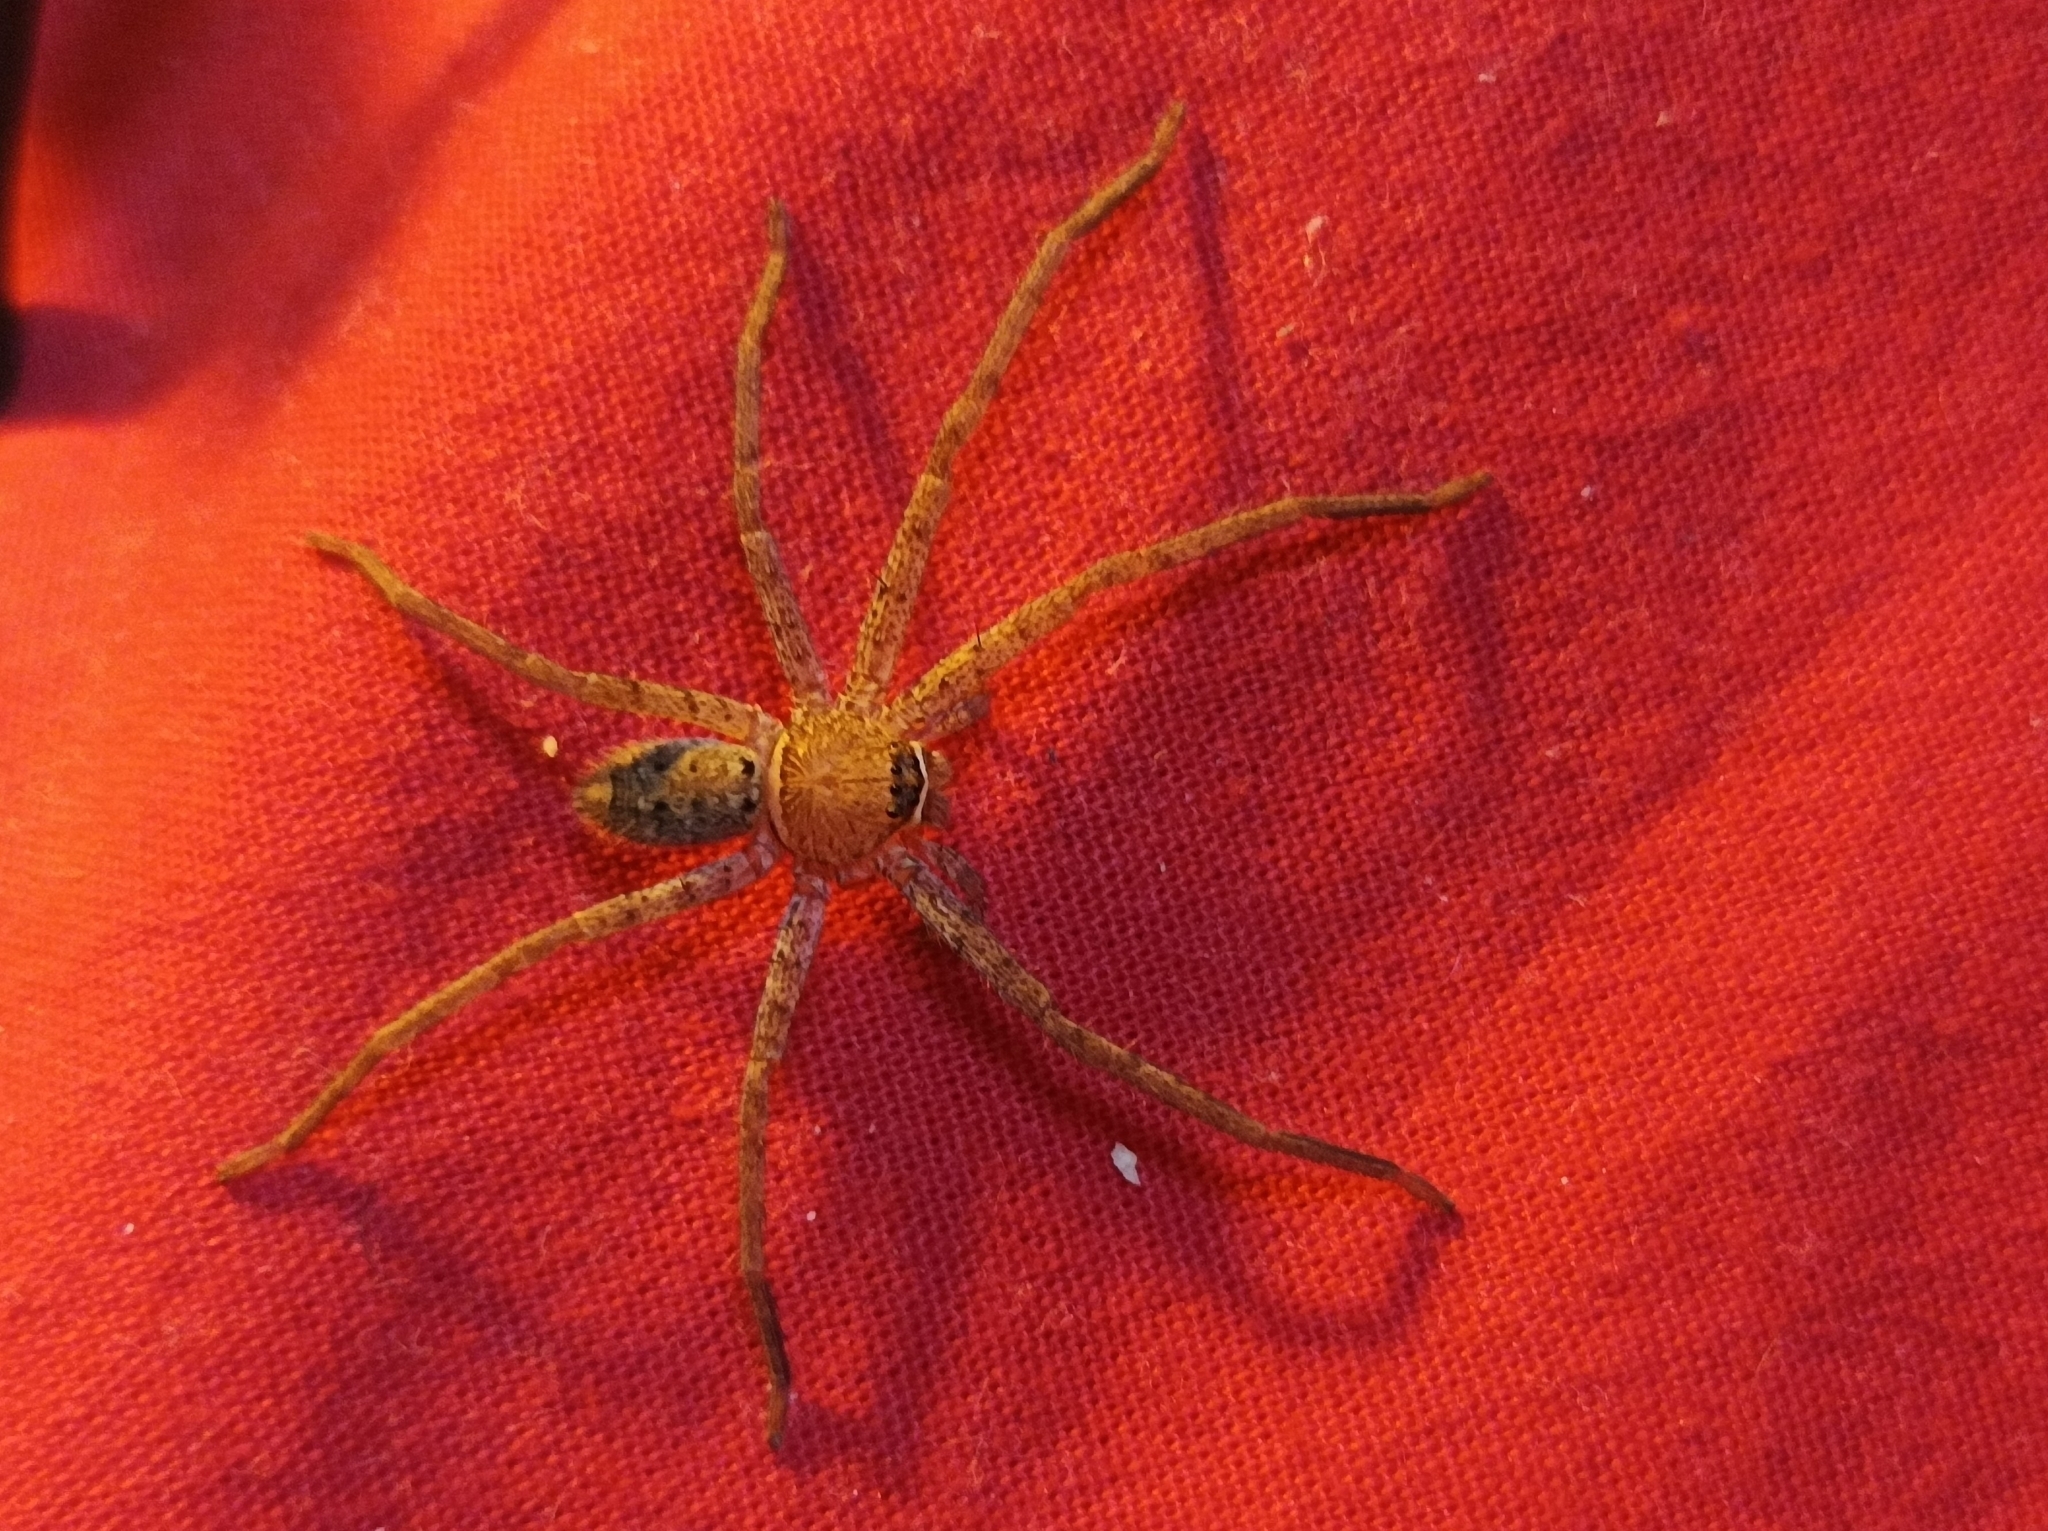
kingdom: Animalia
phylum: Arthropoda
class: Arachnida
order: Araneae
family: Sparassidae
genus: Heteropoda
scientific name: Heteropoda nobilis
